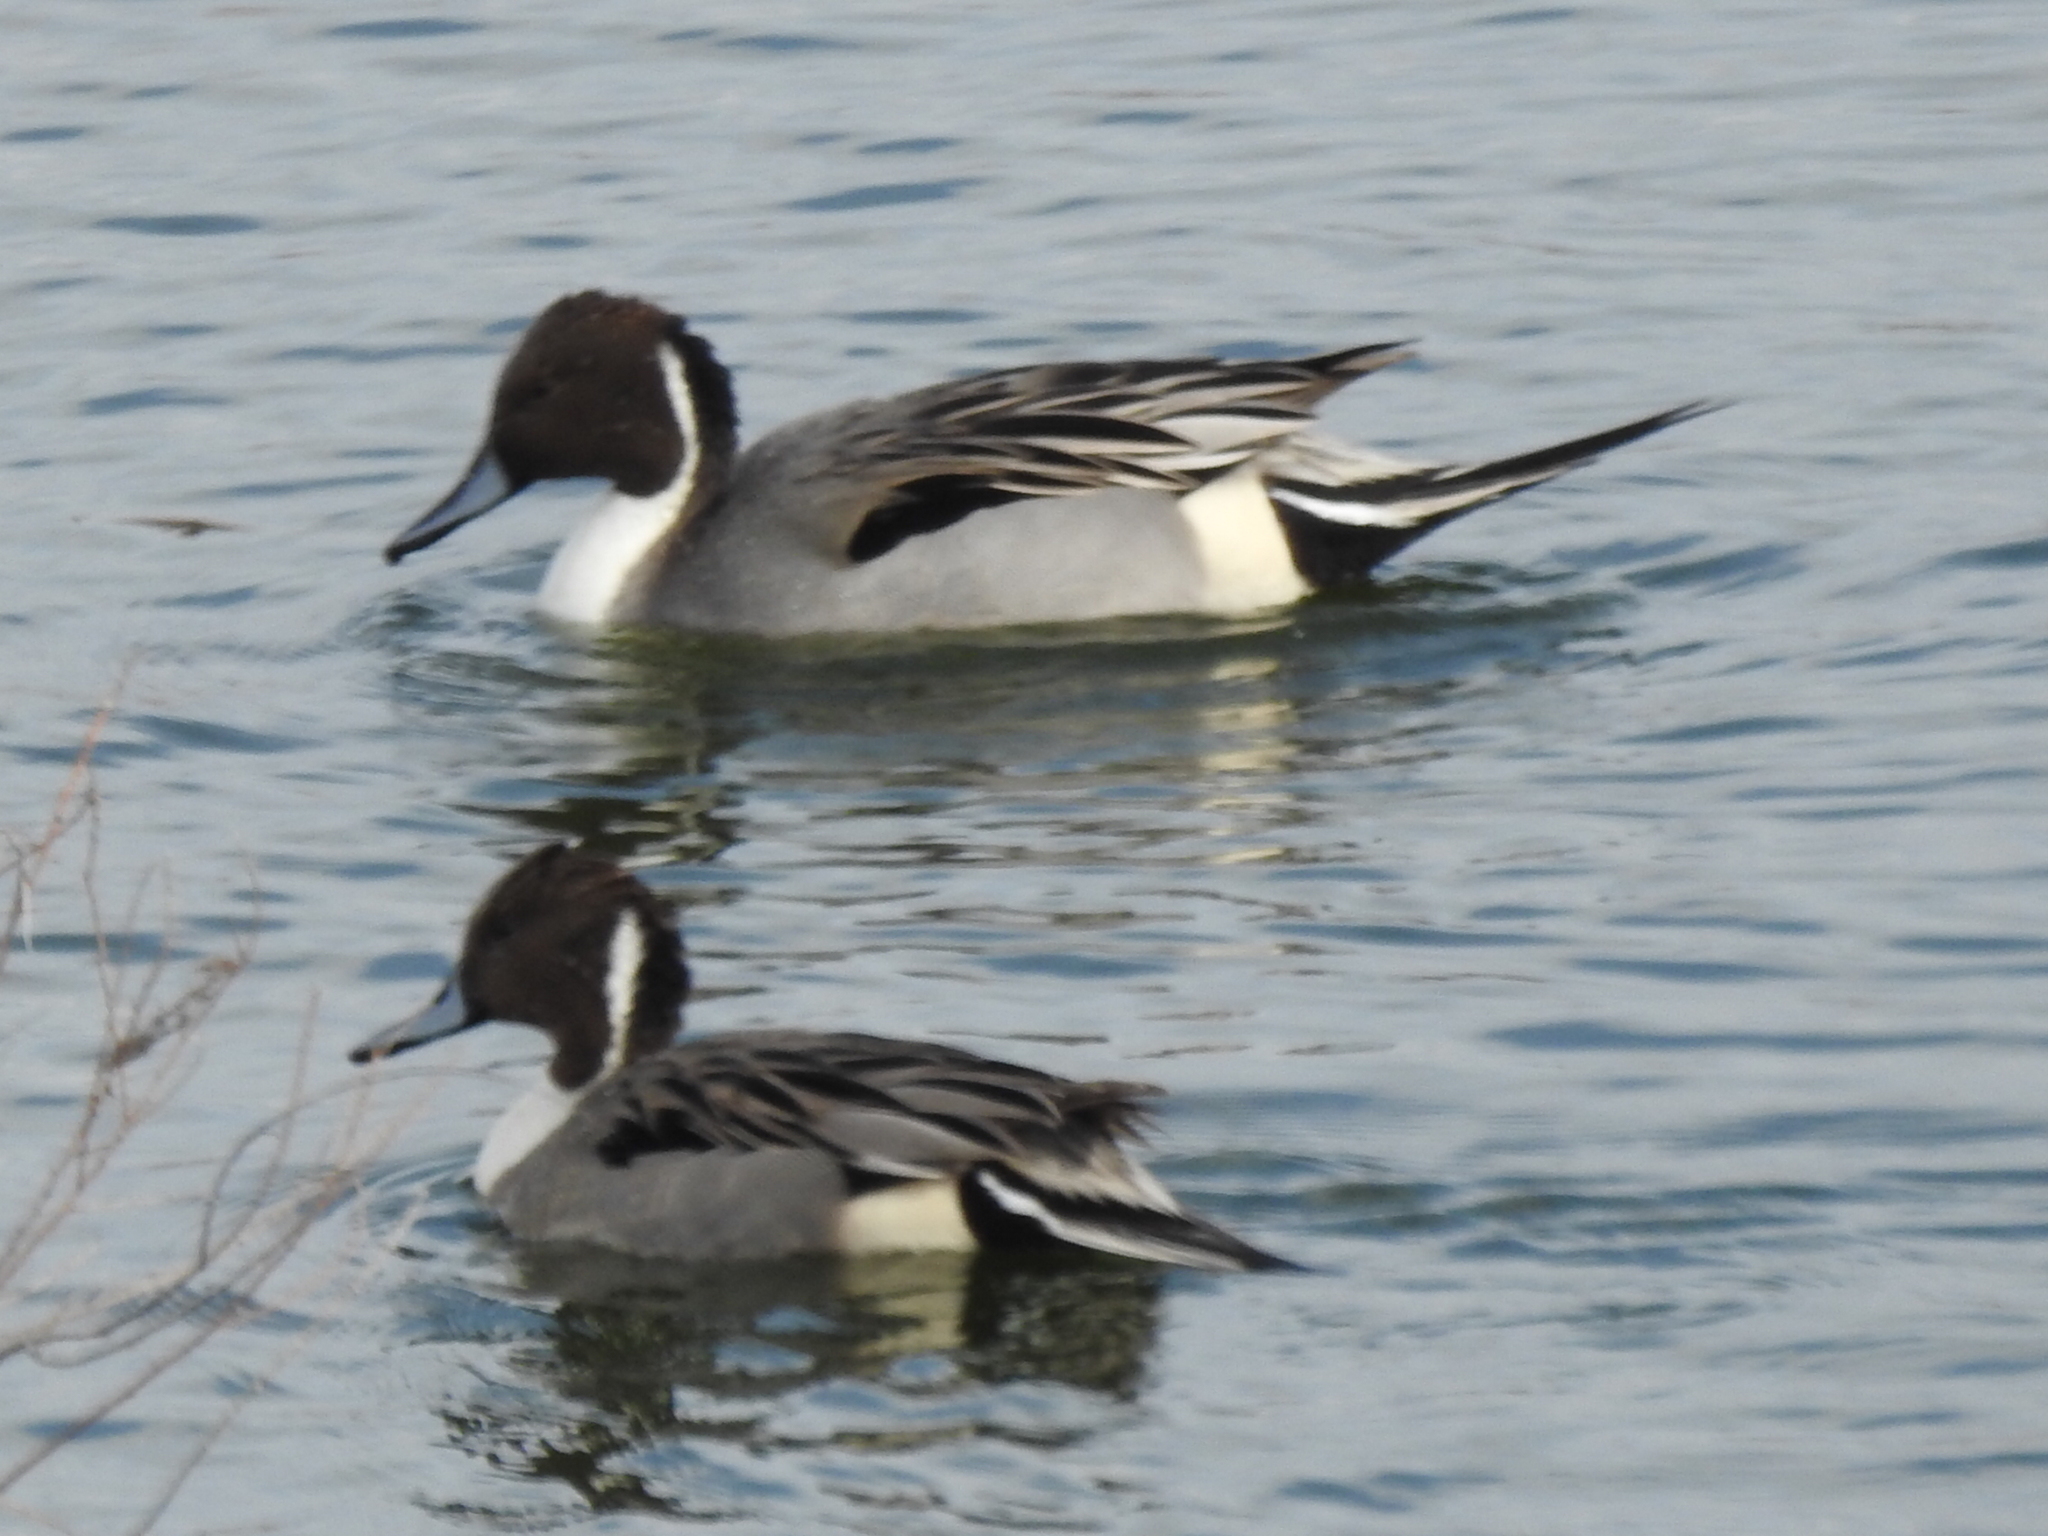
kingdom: Animalia
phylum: Chordata
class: Aves
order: Anseriformes
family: Anatidae
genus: Anas
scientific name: Anas acuta
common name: Northern pintail
